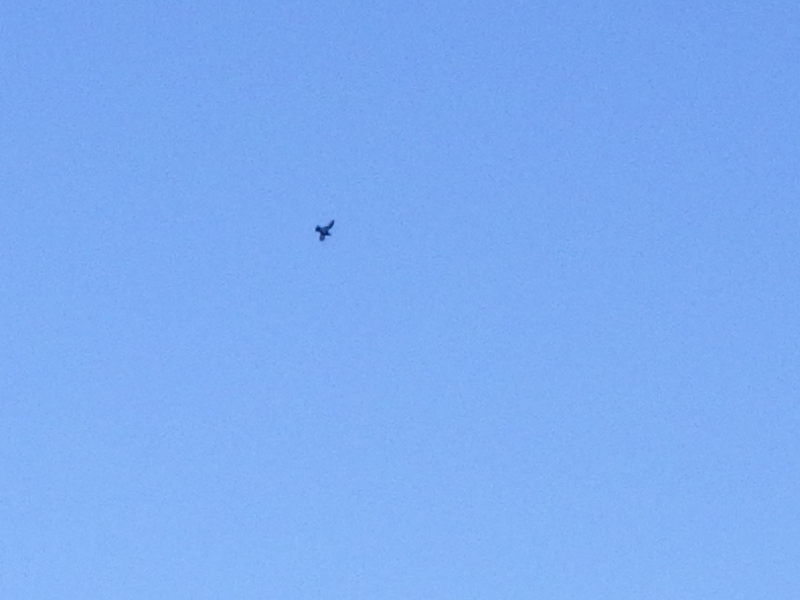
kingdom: Animalia
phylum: Chordata
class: Aves
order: Columbiformes
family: Columbidae
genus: Columba
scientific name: Columba livia
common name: Rock pigeon
